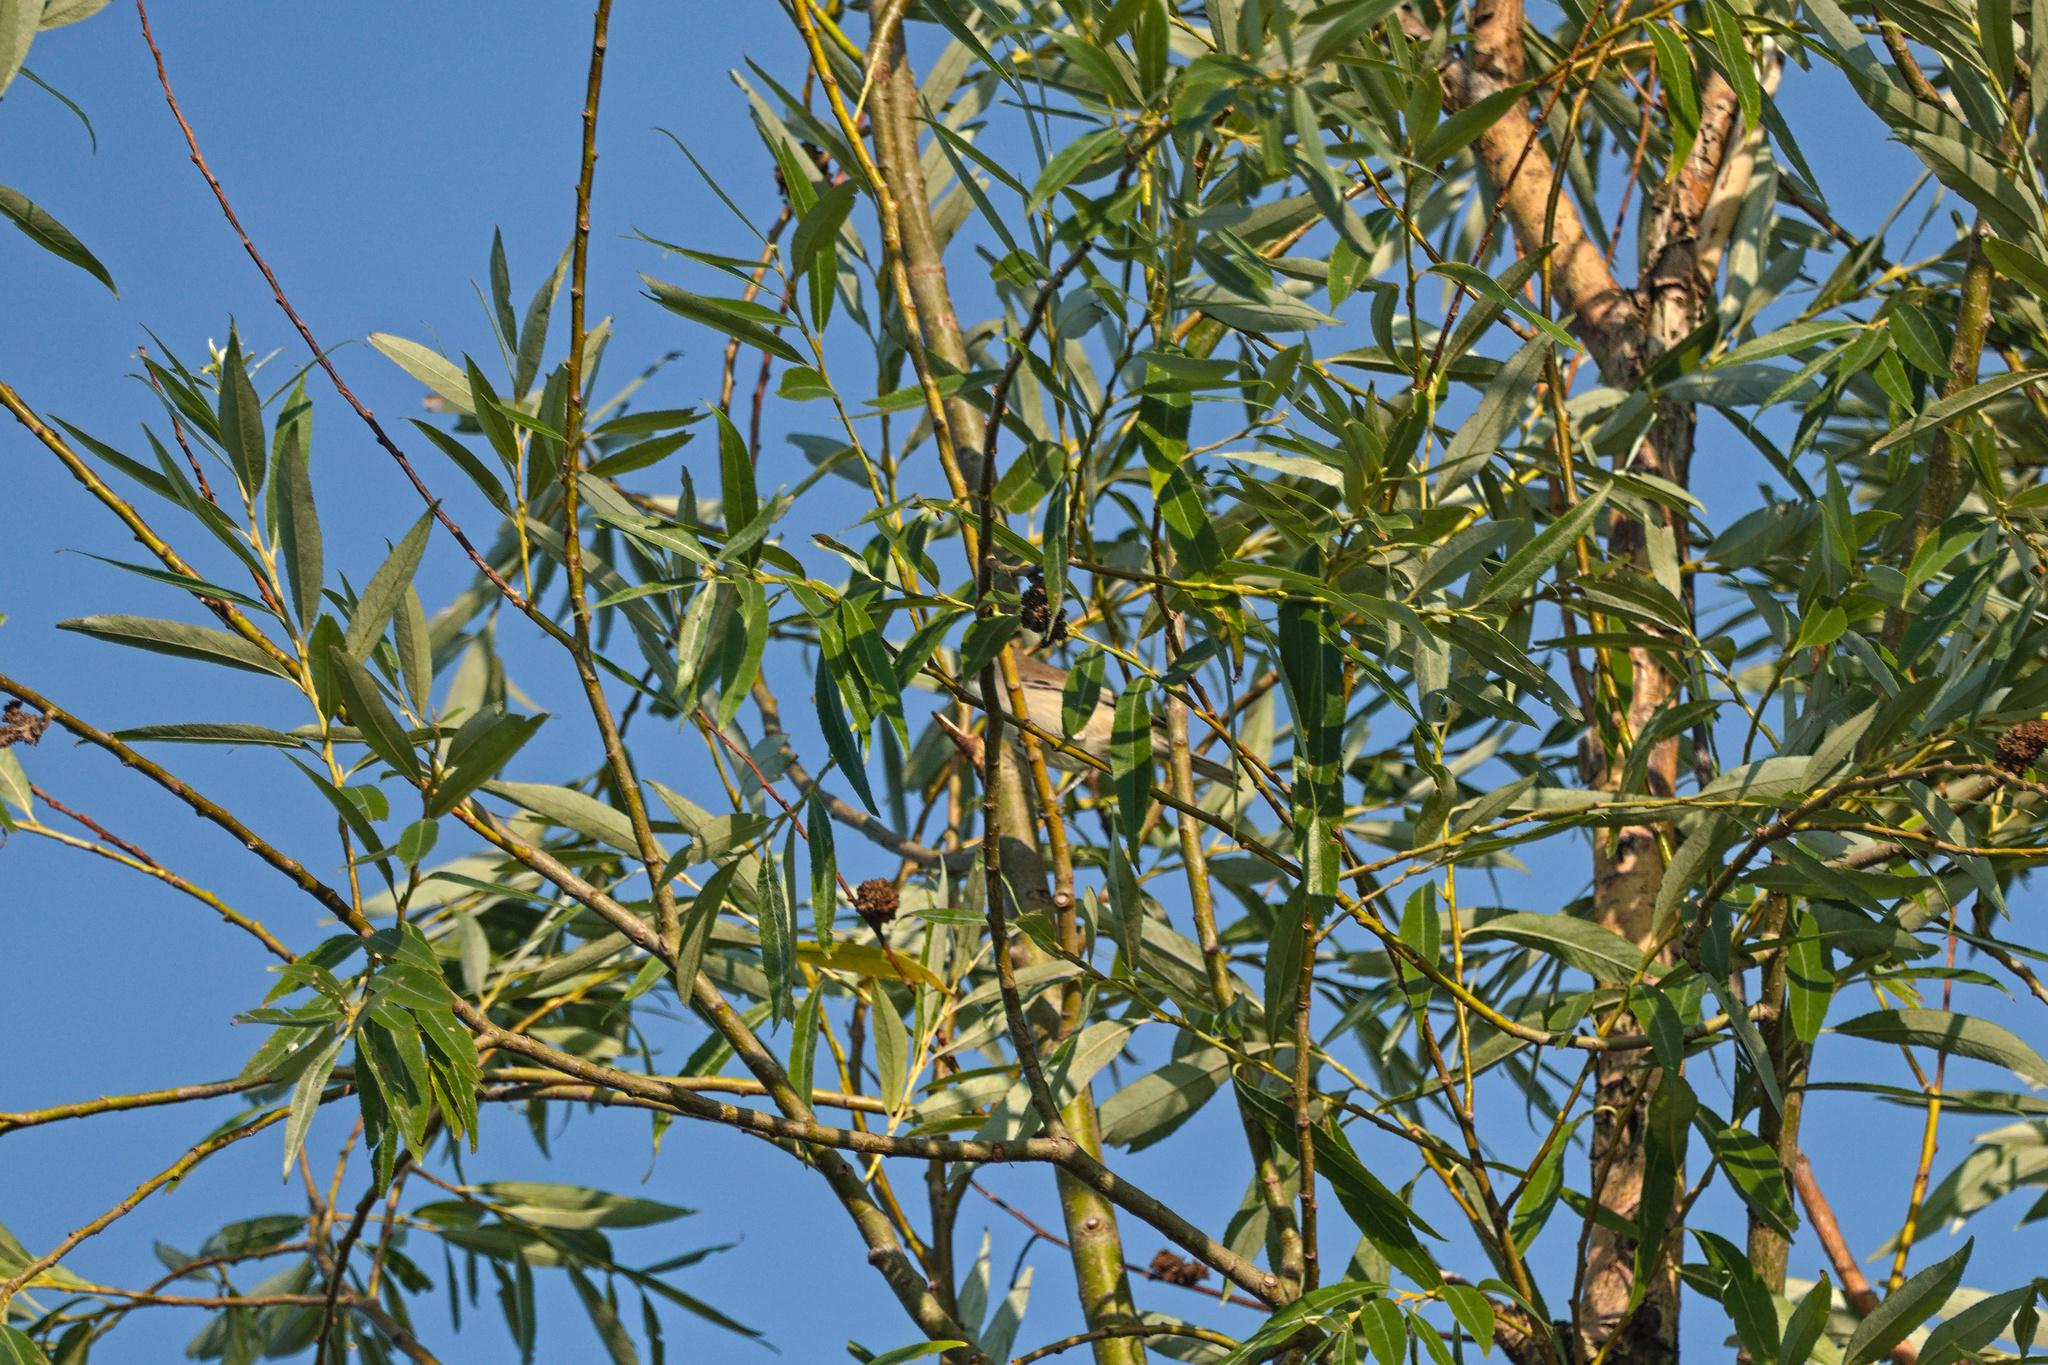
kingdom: Animalia
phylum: Chordata
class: Aves
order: Passeriformes
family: Sylviidae
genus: Sylvia
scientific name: Sylvia communis
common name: Common whitethroat
